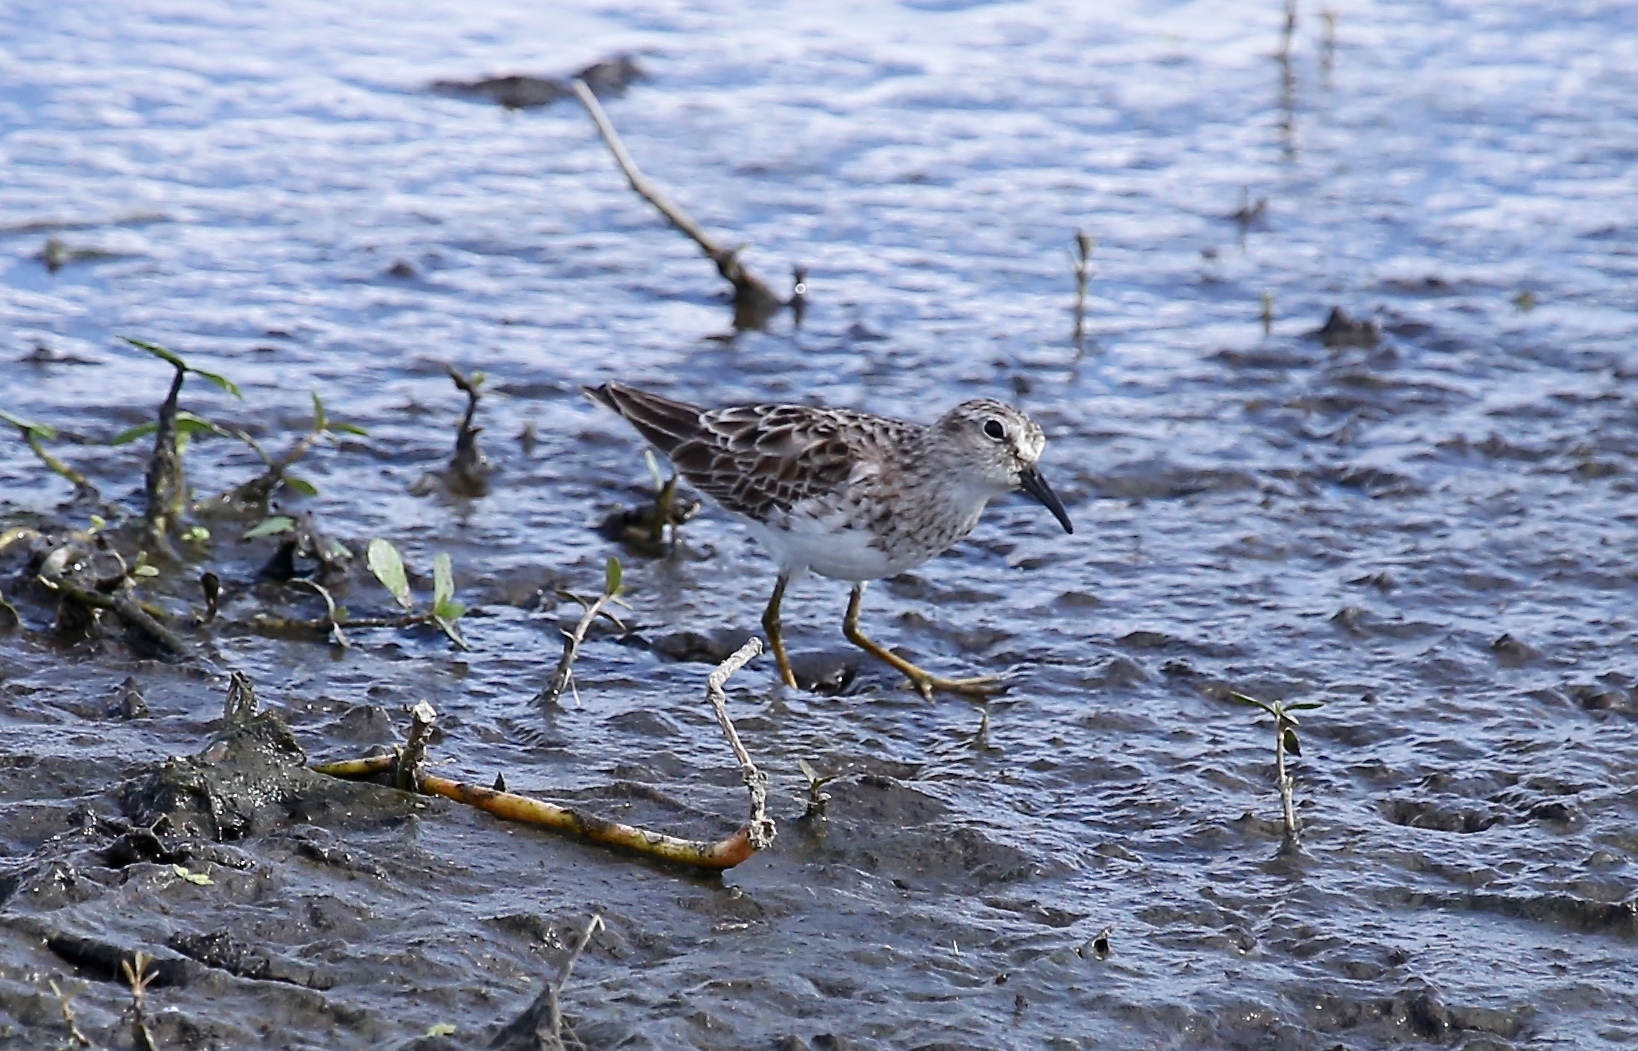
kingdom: Animalia
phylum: Chordata
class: Aves
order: Charadriiformes
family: Scolopacidae
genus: Calidris
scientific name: Calidris minutilla
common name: Least sandpiper
